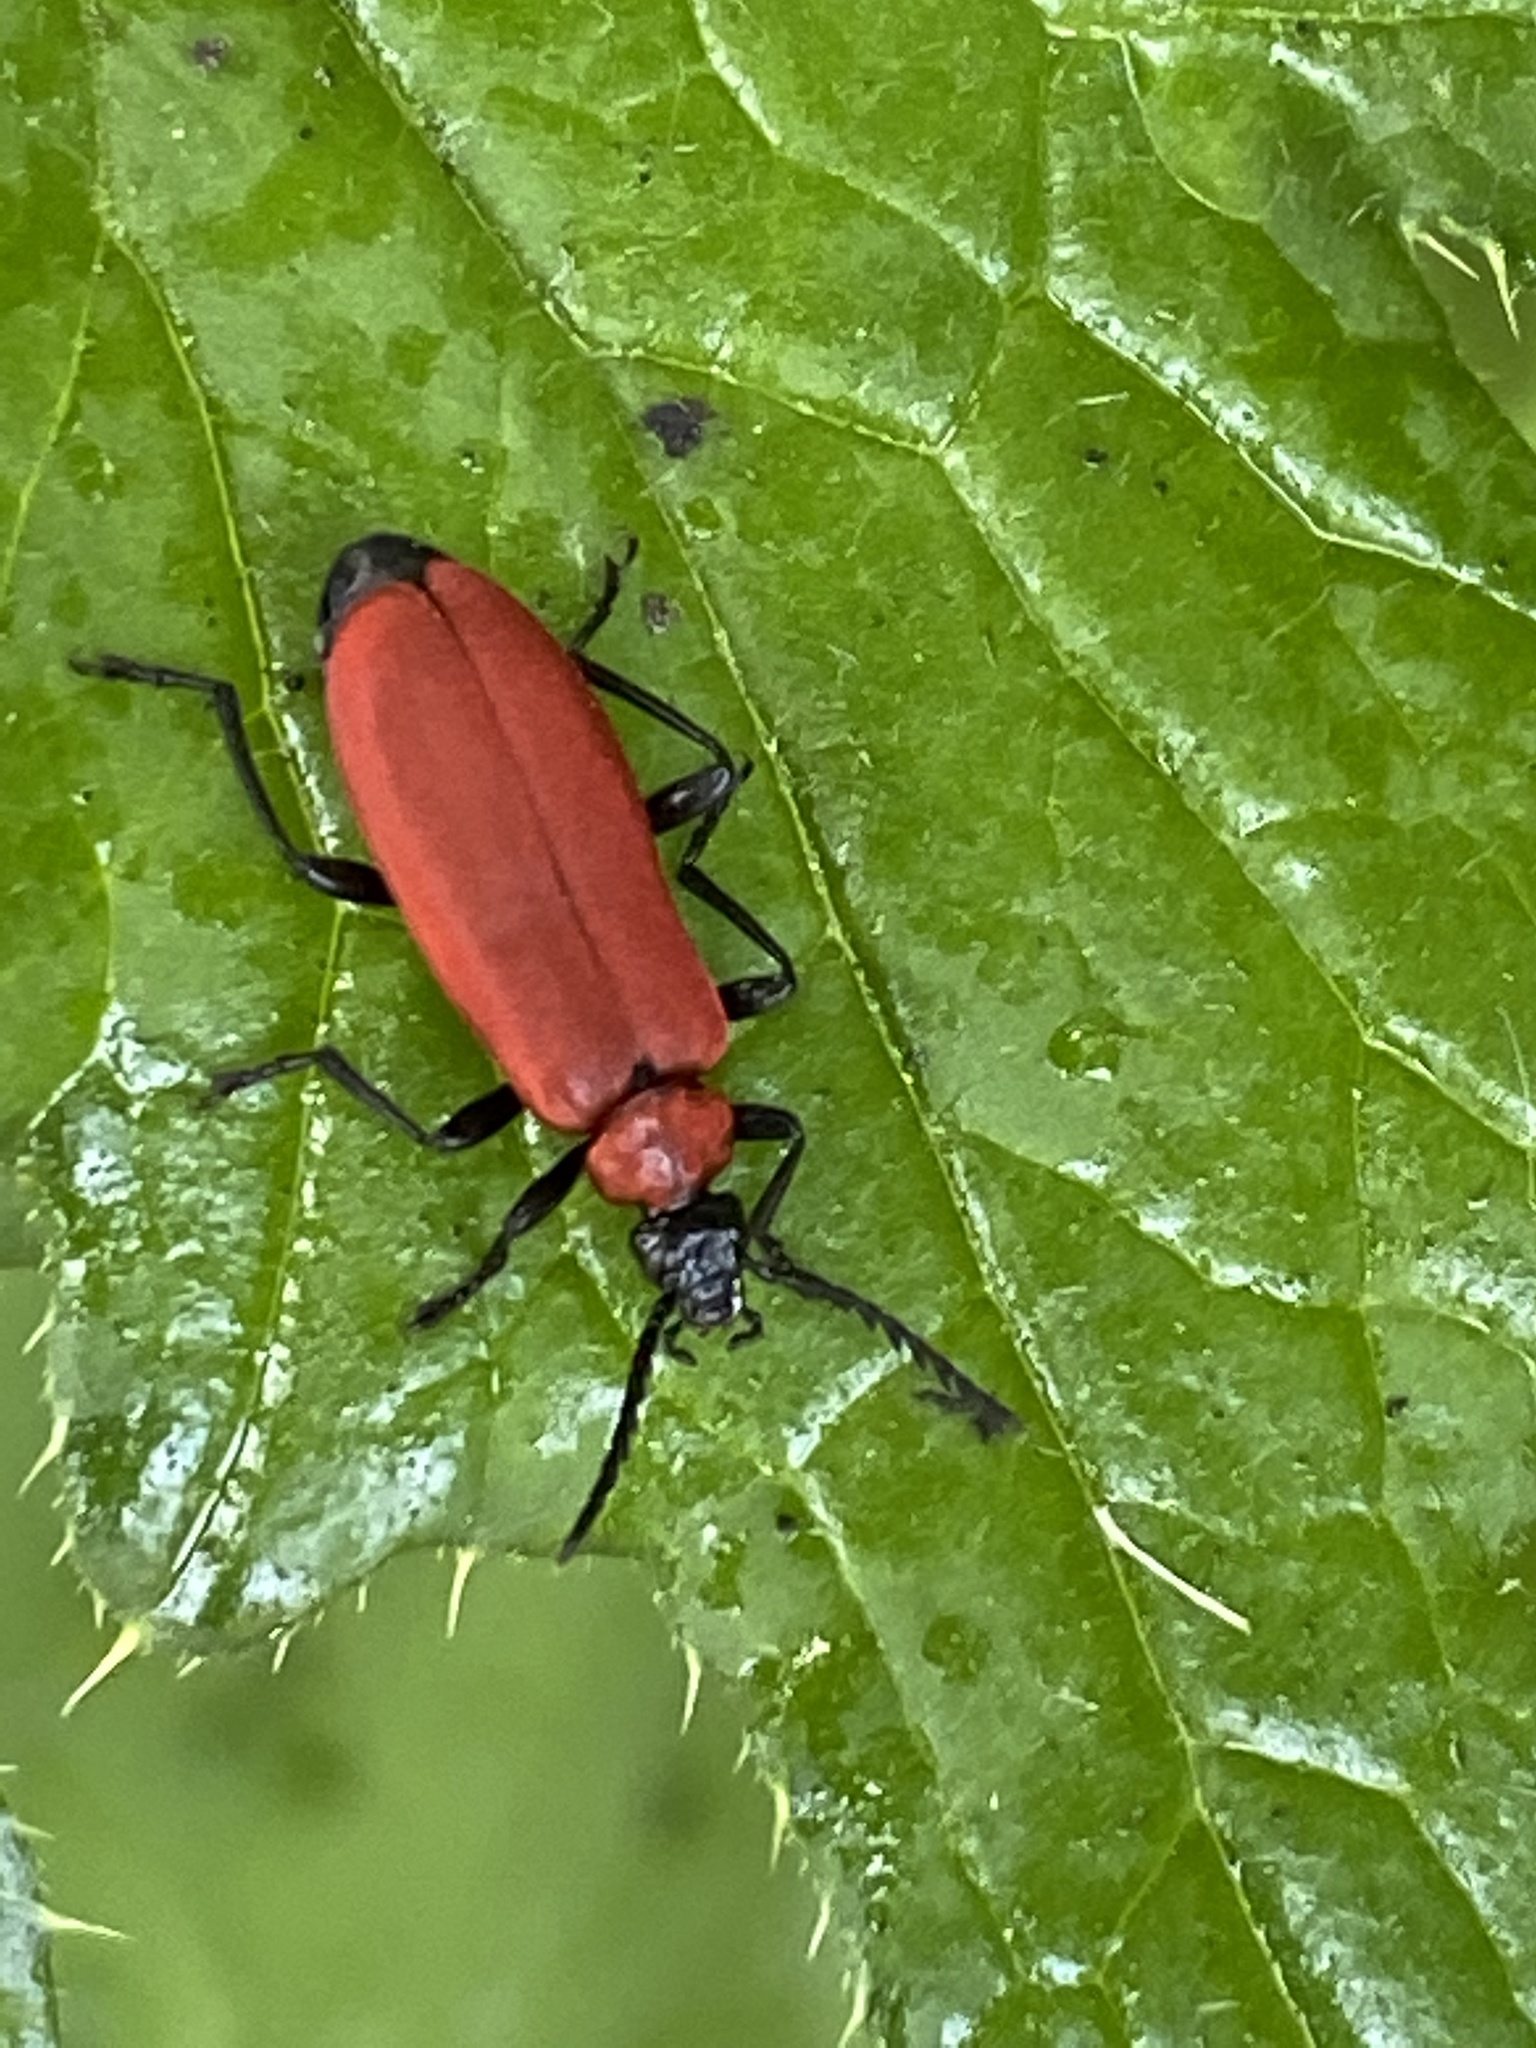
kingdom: Animalia
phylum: Arthropoda
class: Insecta
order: Coleoptera
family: Pyrochroidae
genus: Pyrochroa
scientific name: Pyrochroa coccinea
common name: Black-headed cardinal beetle
